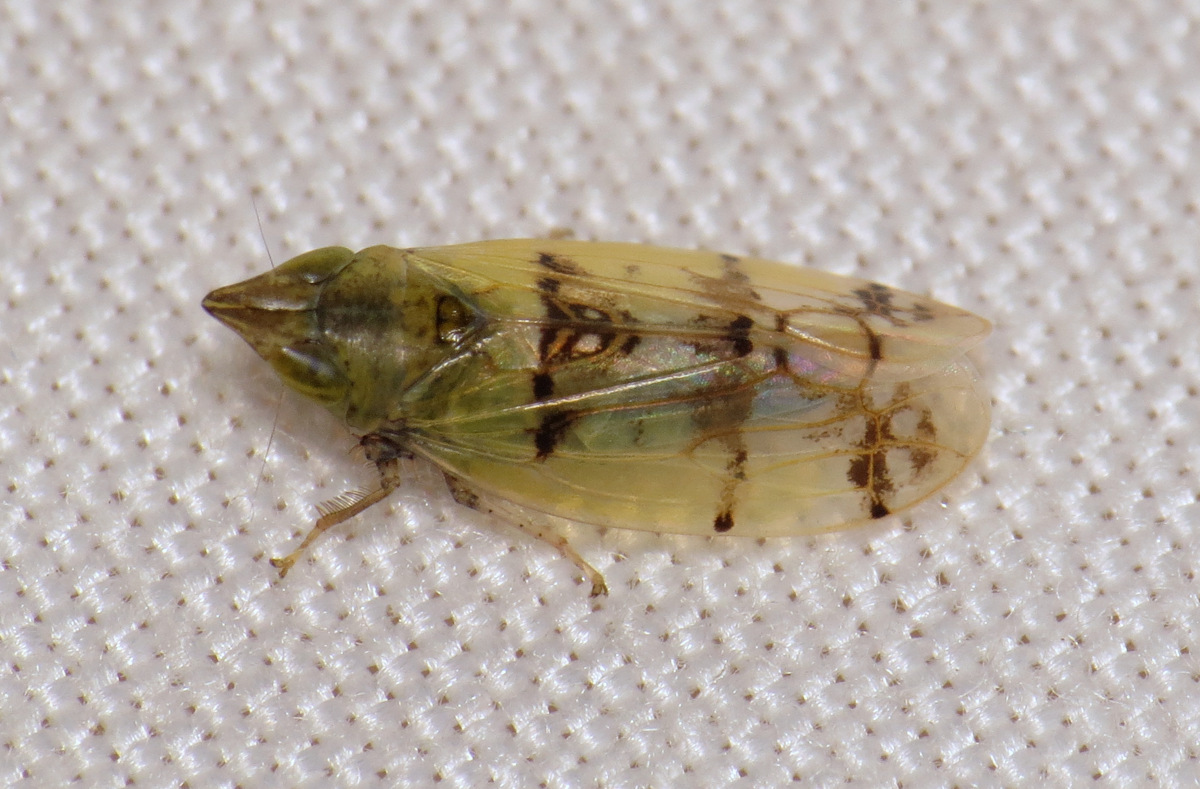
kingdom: Animalia
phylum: Arthropoda
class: Insecta
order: Hemiptera
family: Cicadellidae
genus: Japananus
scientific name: Japananus hyalinus
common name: The japanese maple leafhopper
